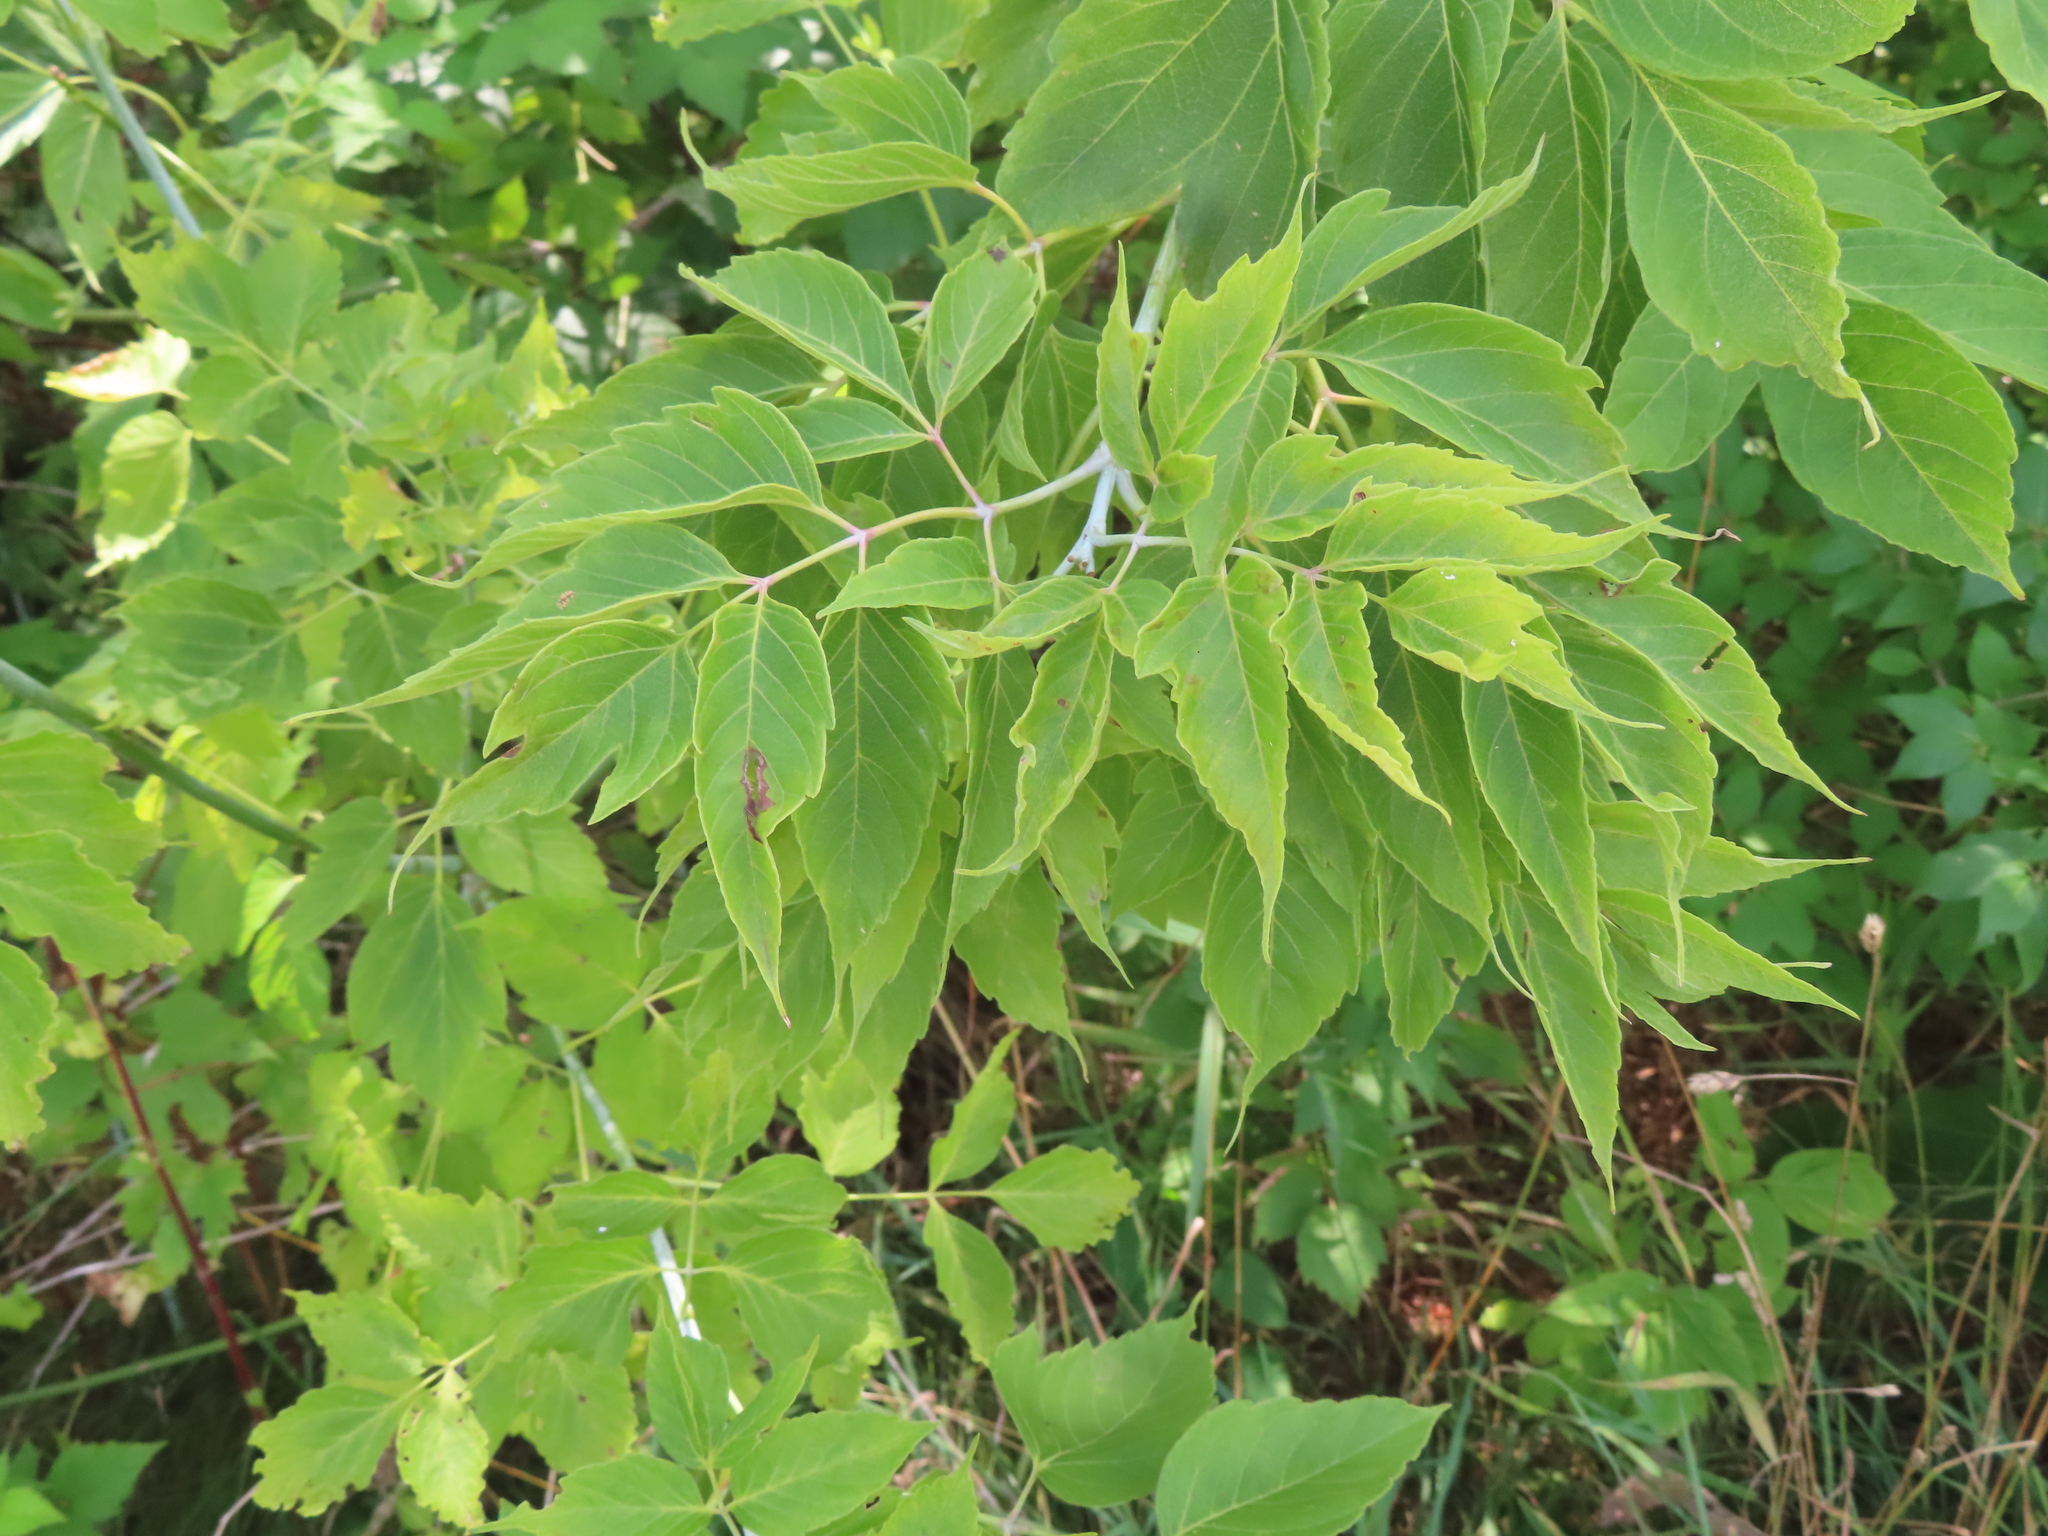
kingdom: Plantae
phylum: Tracheophyta
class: Magnoliopsida
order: Sapindales
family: Sapindaceae
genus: Acer
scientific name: Acer negundo
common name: Ashleaf maple
